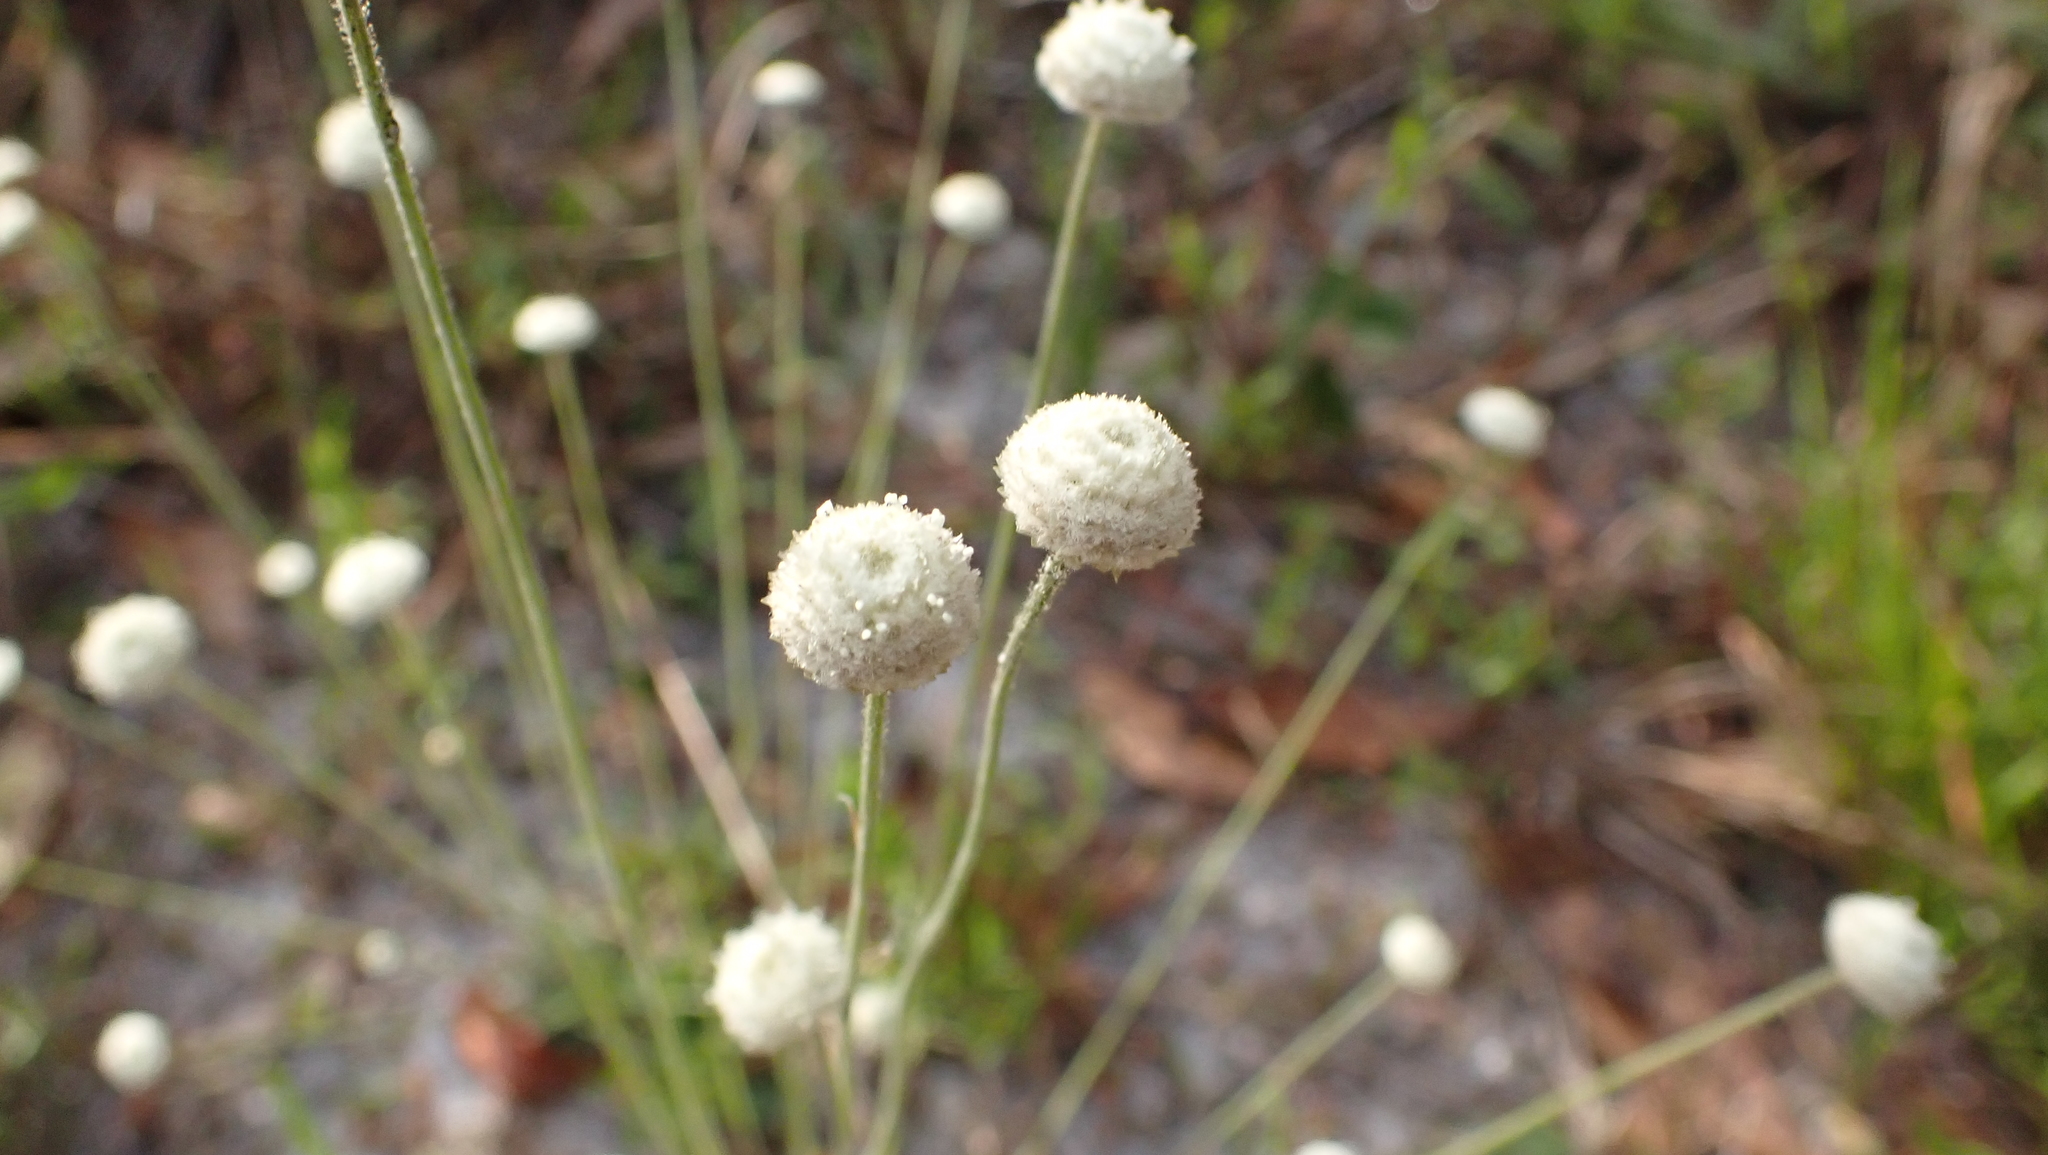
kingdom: Plantae
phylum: Tracheophyta
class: Liliopsida
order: Poales
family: Eriocaulaceae
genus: Syngonanthus
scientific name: Syngonanthus flavidulus
